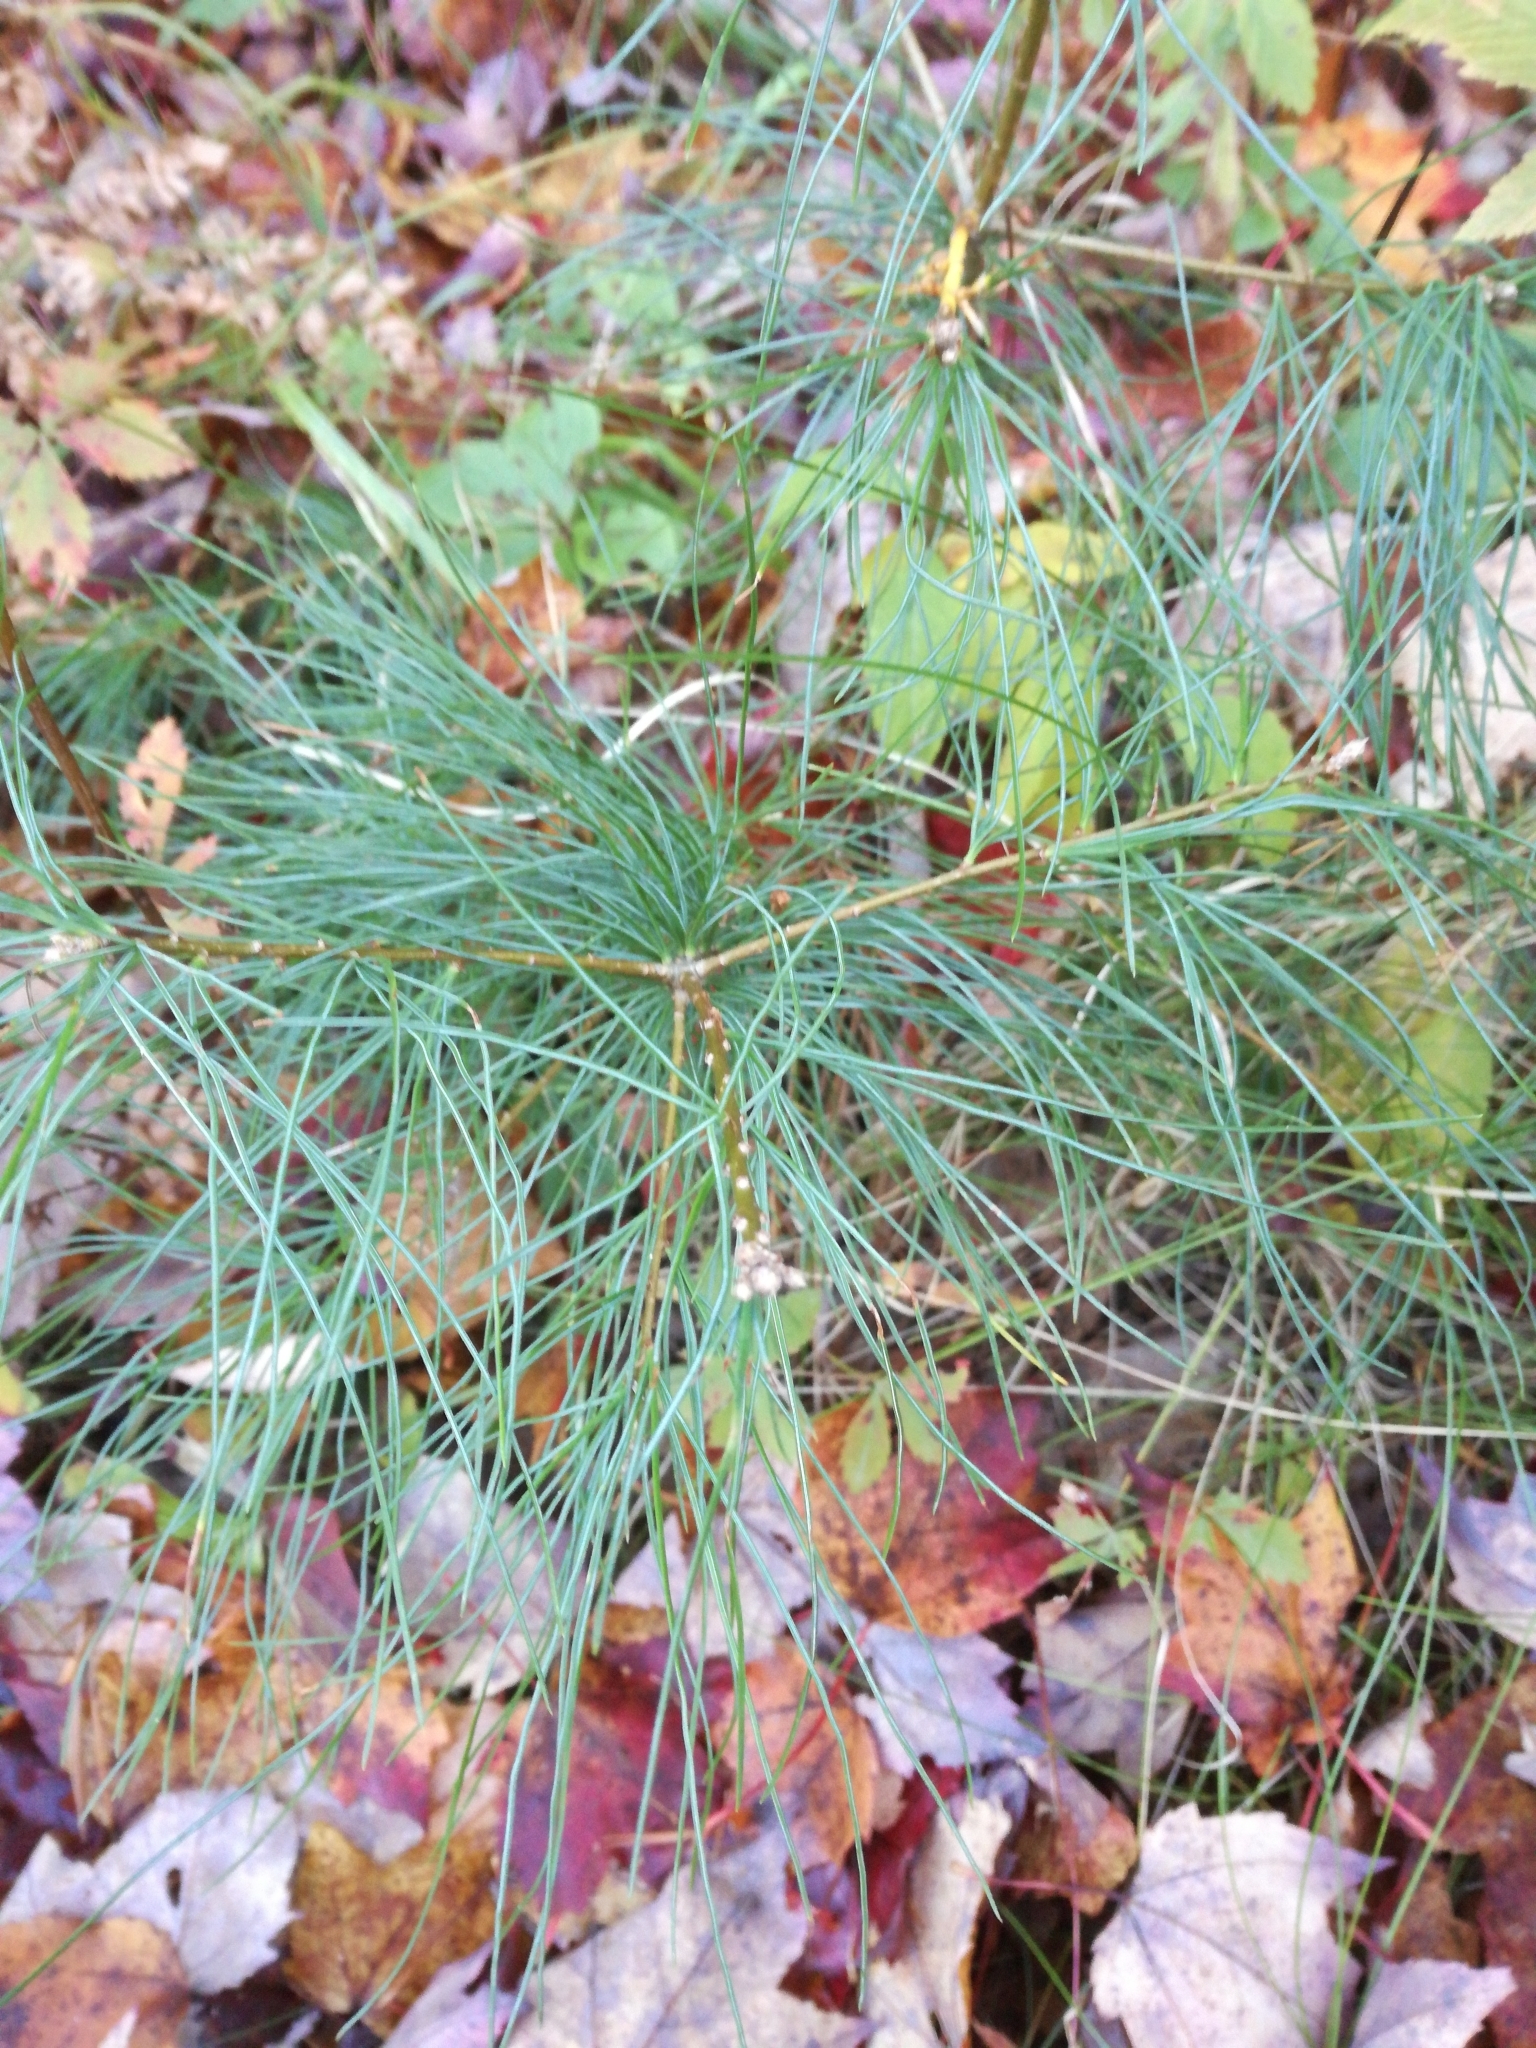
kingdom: Plantae
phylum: Tracheophyta
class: Pinopsida
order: Pinales
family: Pinaceae
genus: Pinus
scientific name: Pinus strobus
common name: Weymouth pine
